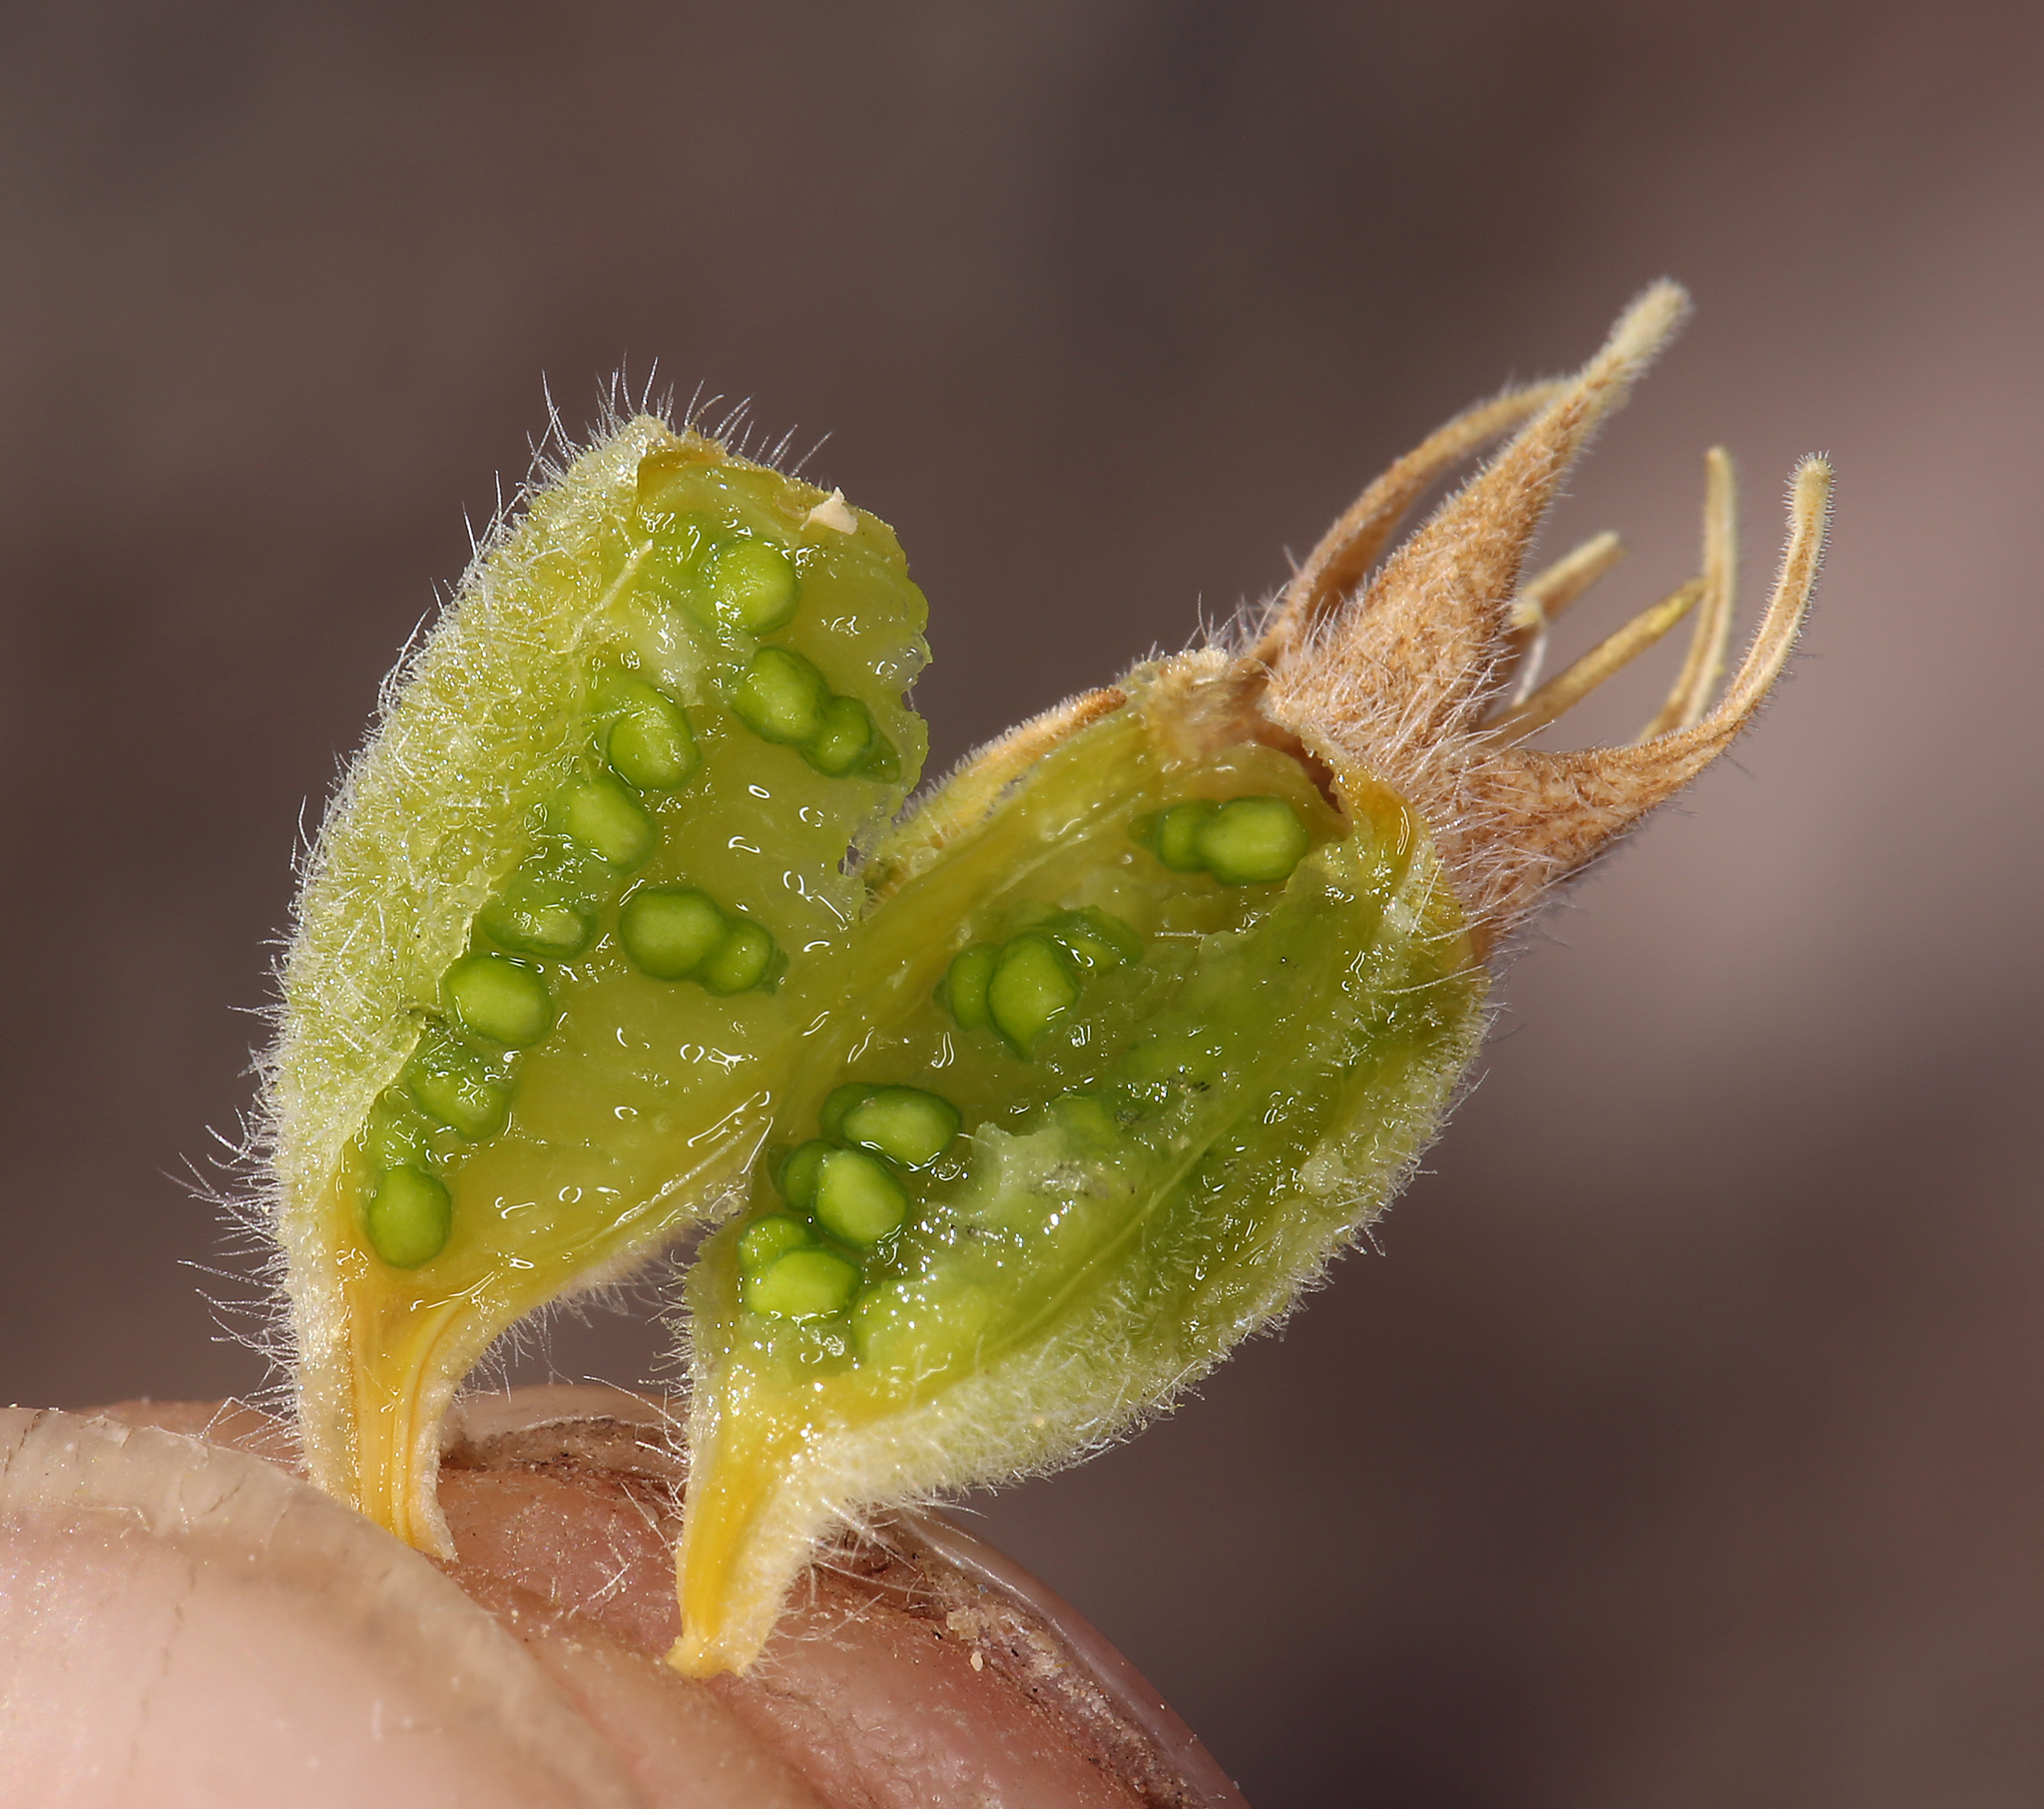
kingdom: Plantae
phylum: Tracheophyta
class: Magnoliopsida
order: Cornales
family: Loasaceae
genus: Mentzelia
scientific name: Mentzelia reflexa
